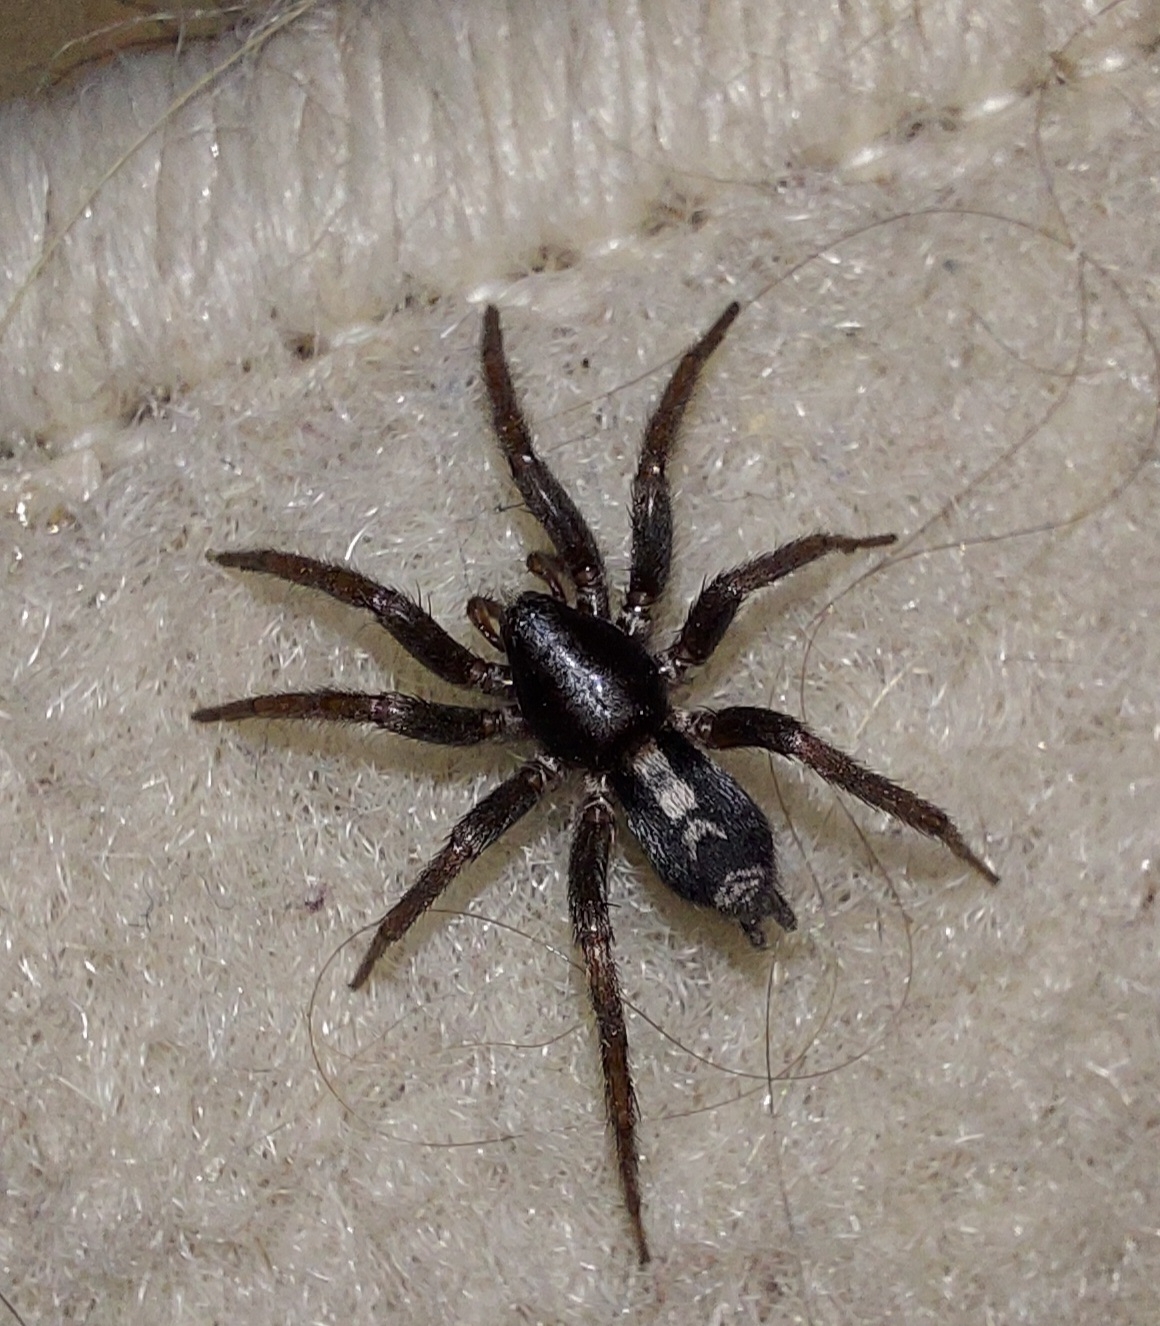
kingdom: Animalia
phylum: Arthropoda
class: Arachnida
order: Araneae
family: Gnaphosidae
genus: Herpyllus
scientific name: Herpyllus ecclesiasticus
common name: Eastern parson spider
